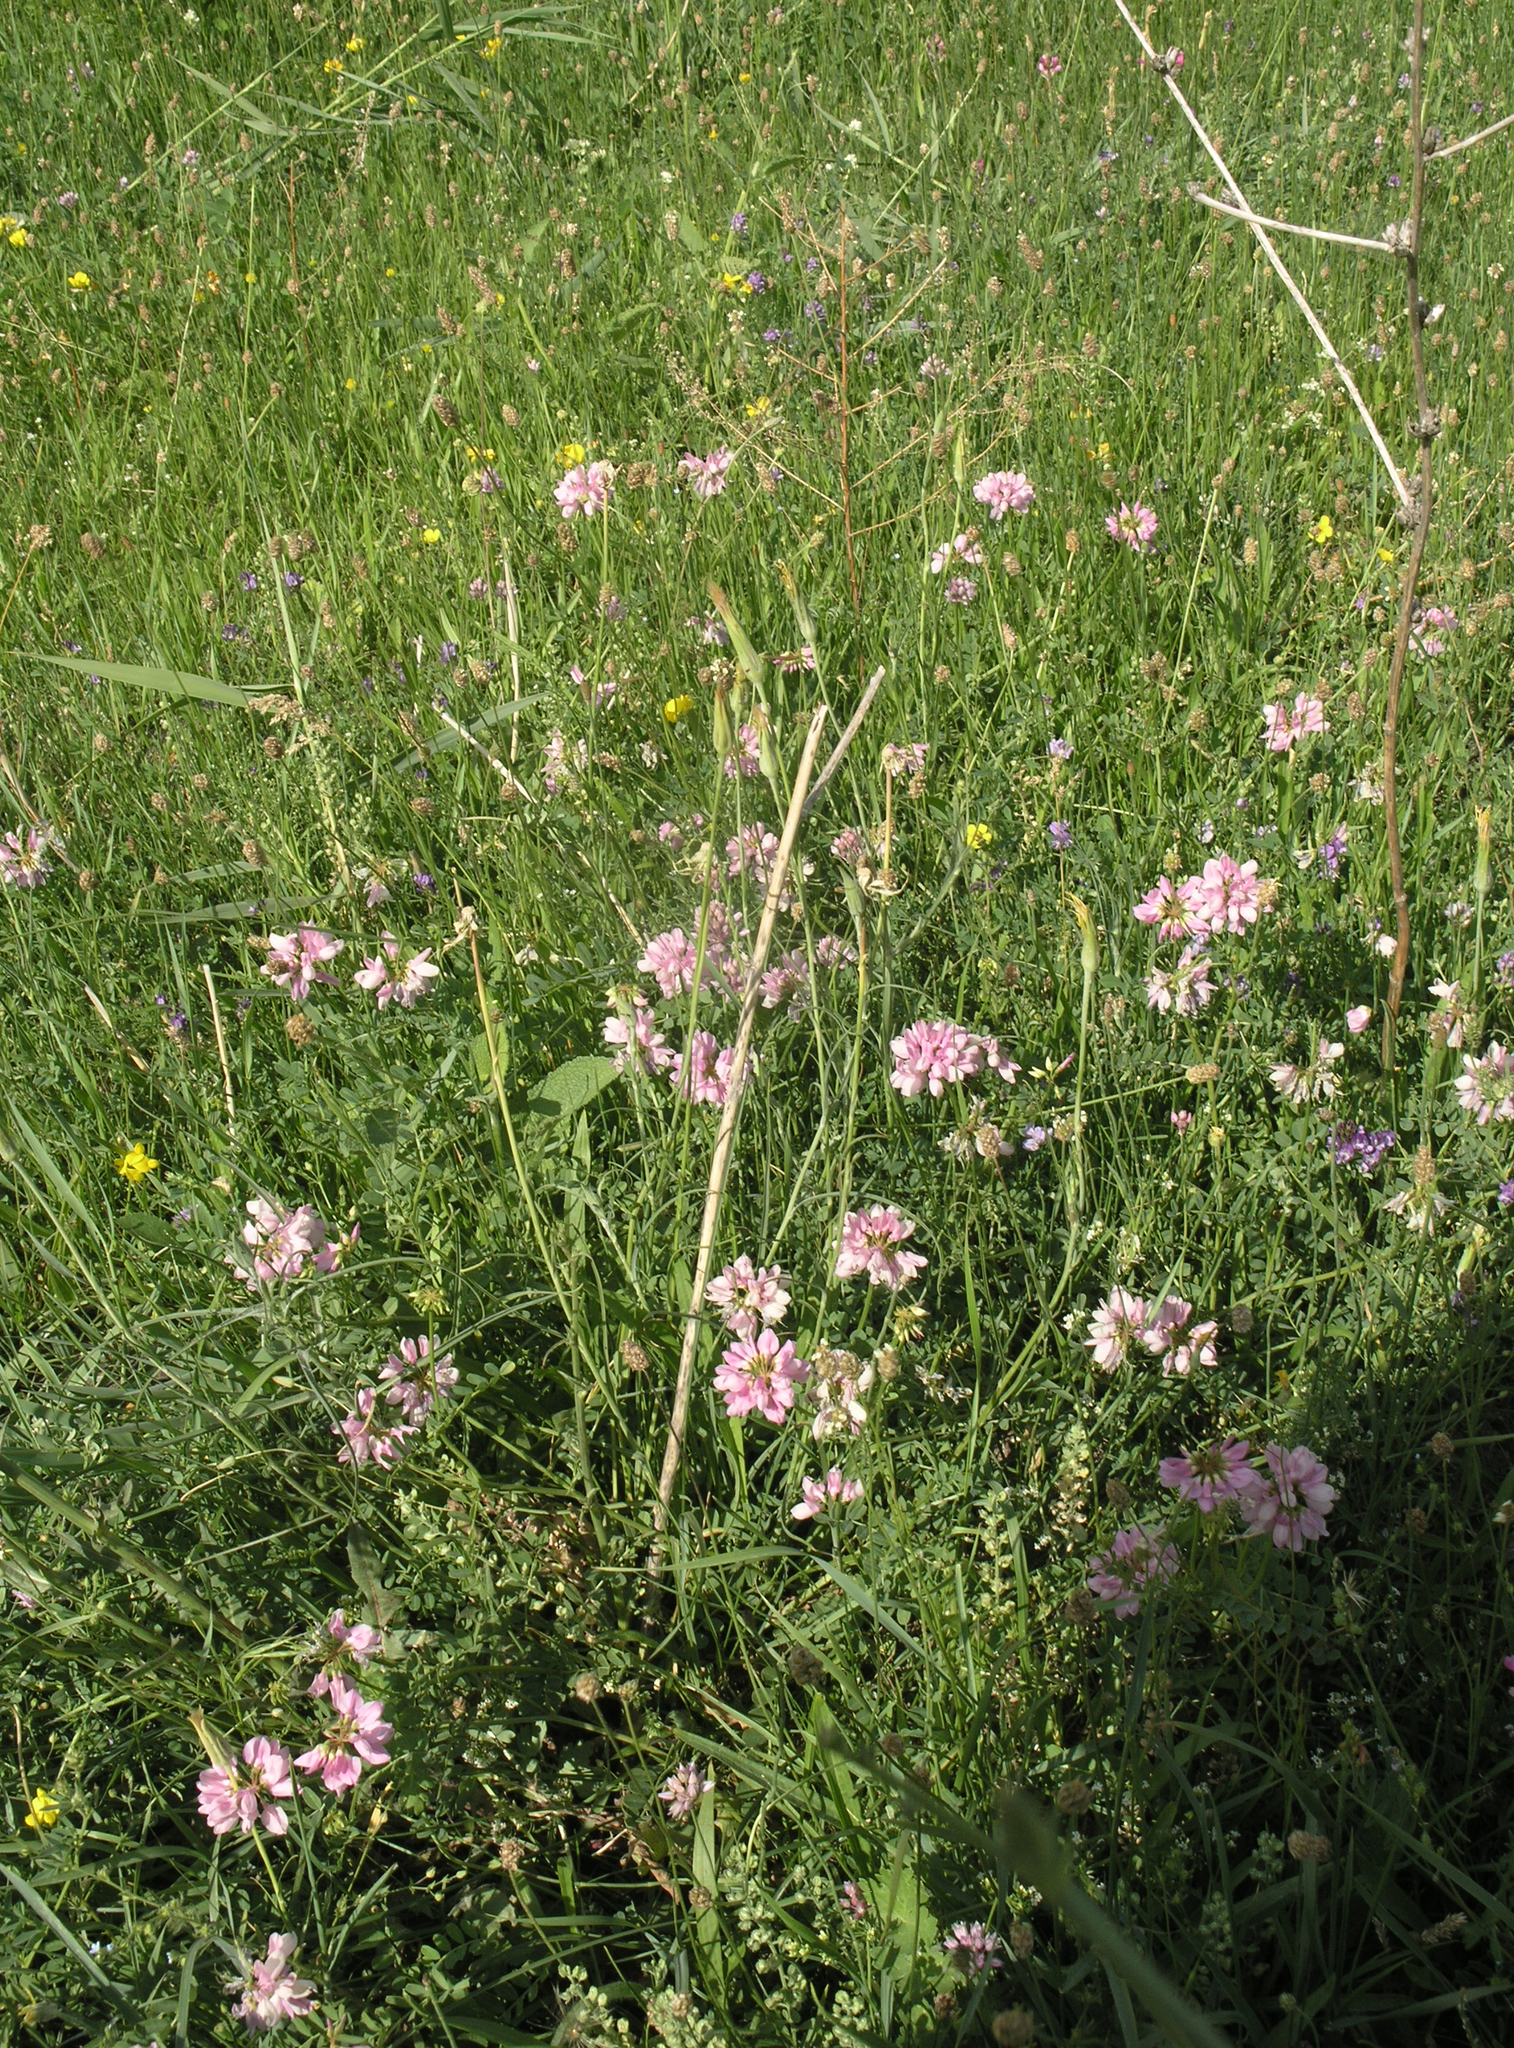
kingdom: Plantae
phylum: Tracheophyta
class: Magnoliopsida
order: Fabales
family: Fabaceae
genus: Coronilla
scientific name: Coronilla varia
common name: Crownvetch
